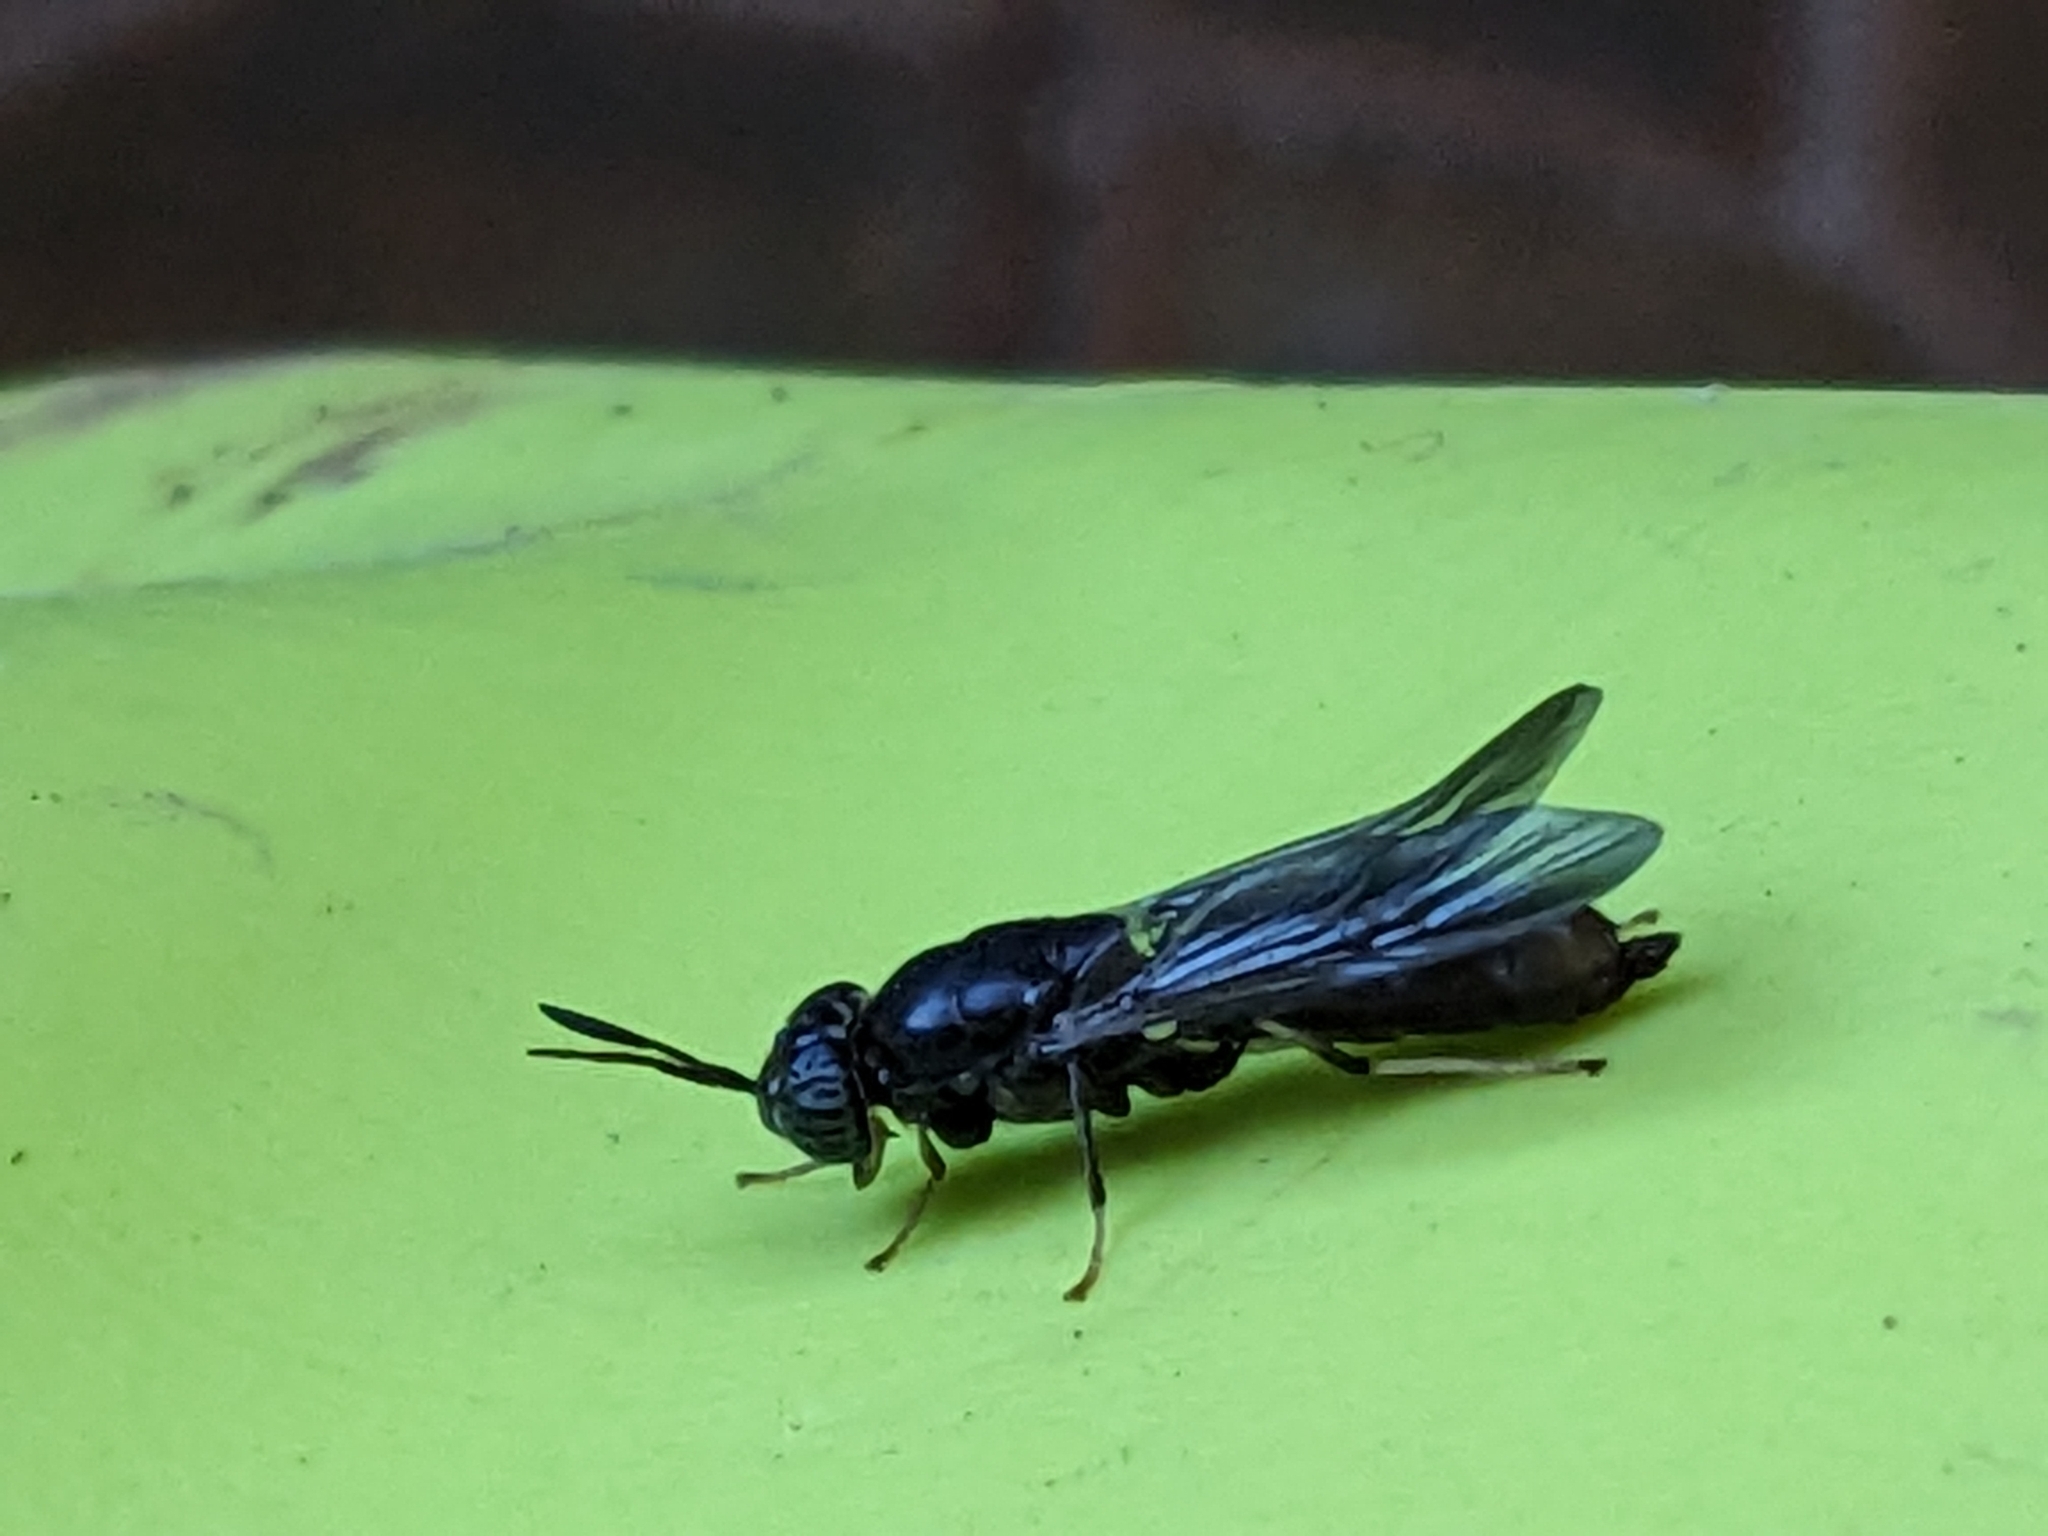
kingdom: Animalia
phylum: Arthropoda
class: Insecta
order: Diptera
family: Stratiomyidae
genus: Hermetia
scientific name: Hermetia illucens
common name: Black soldier fly
